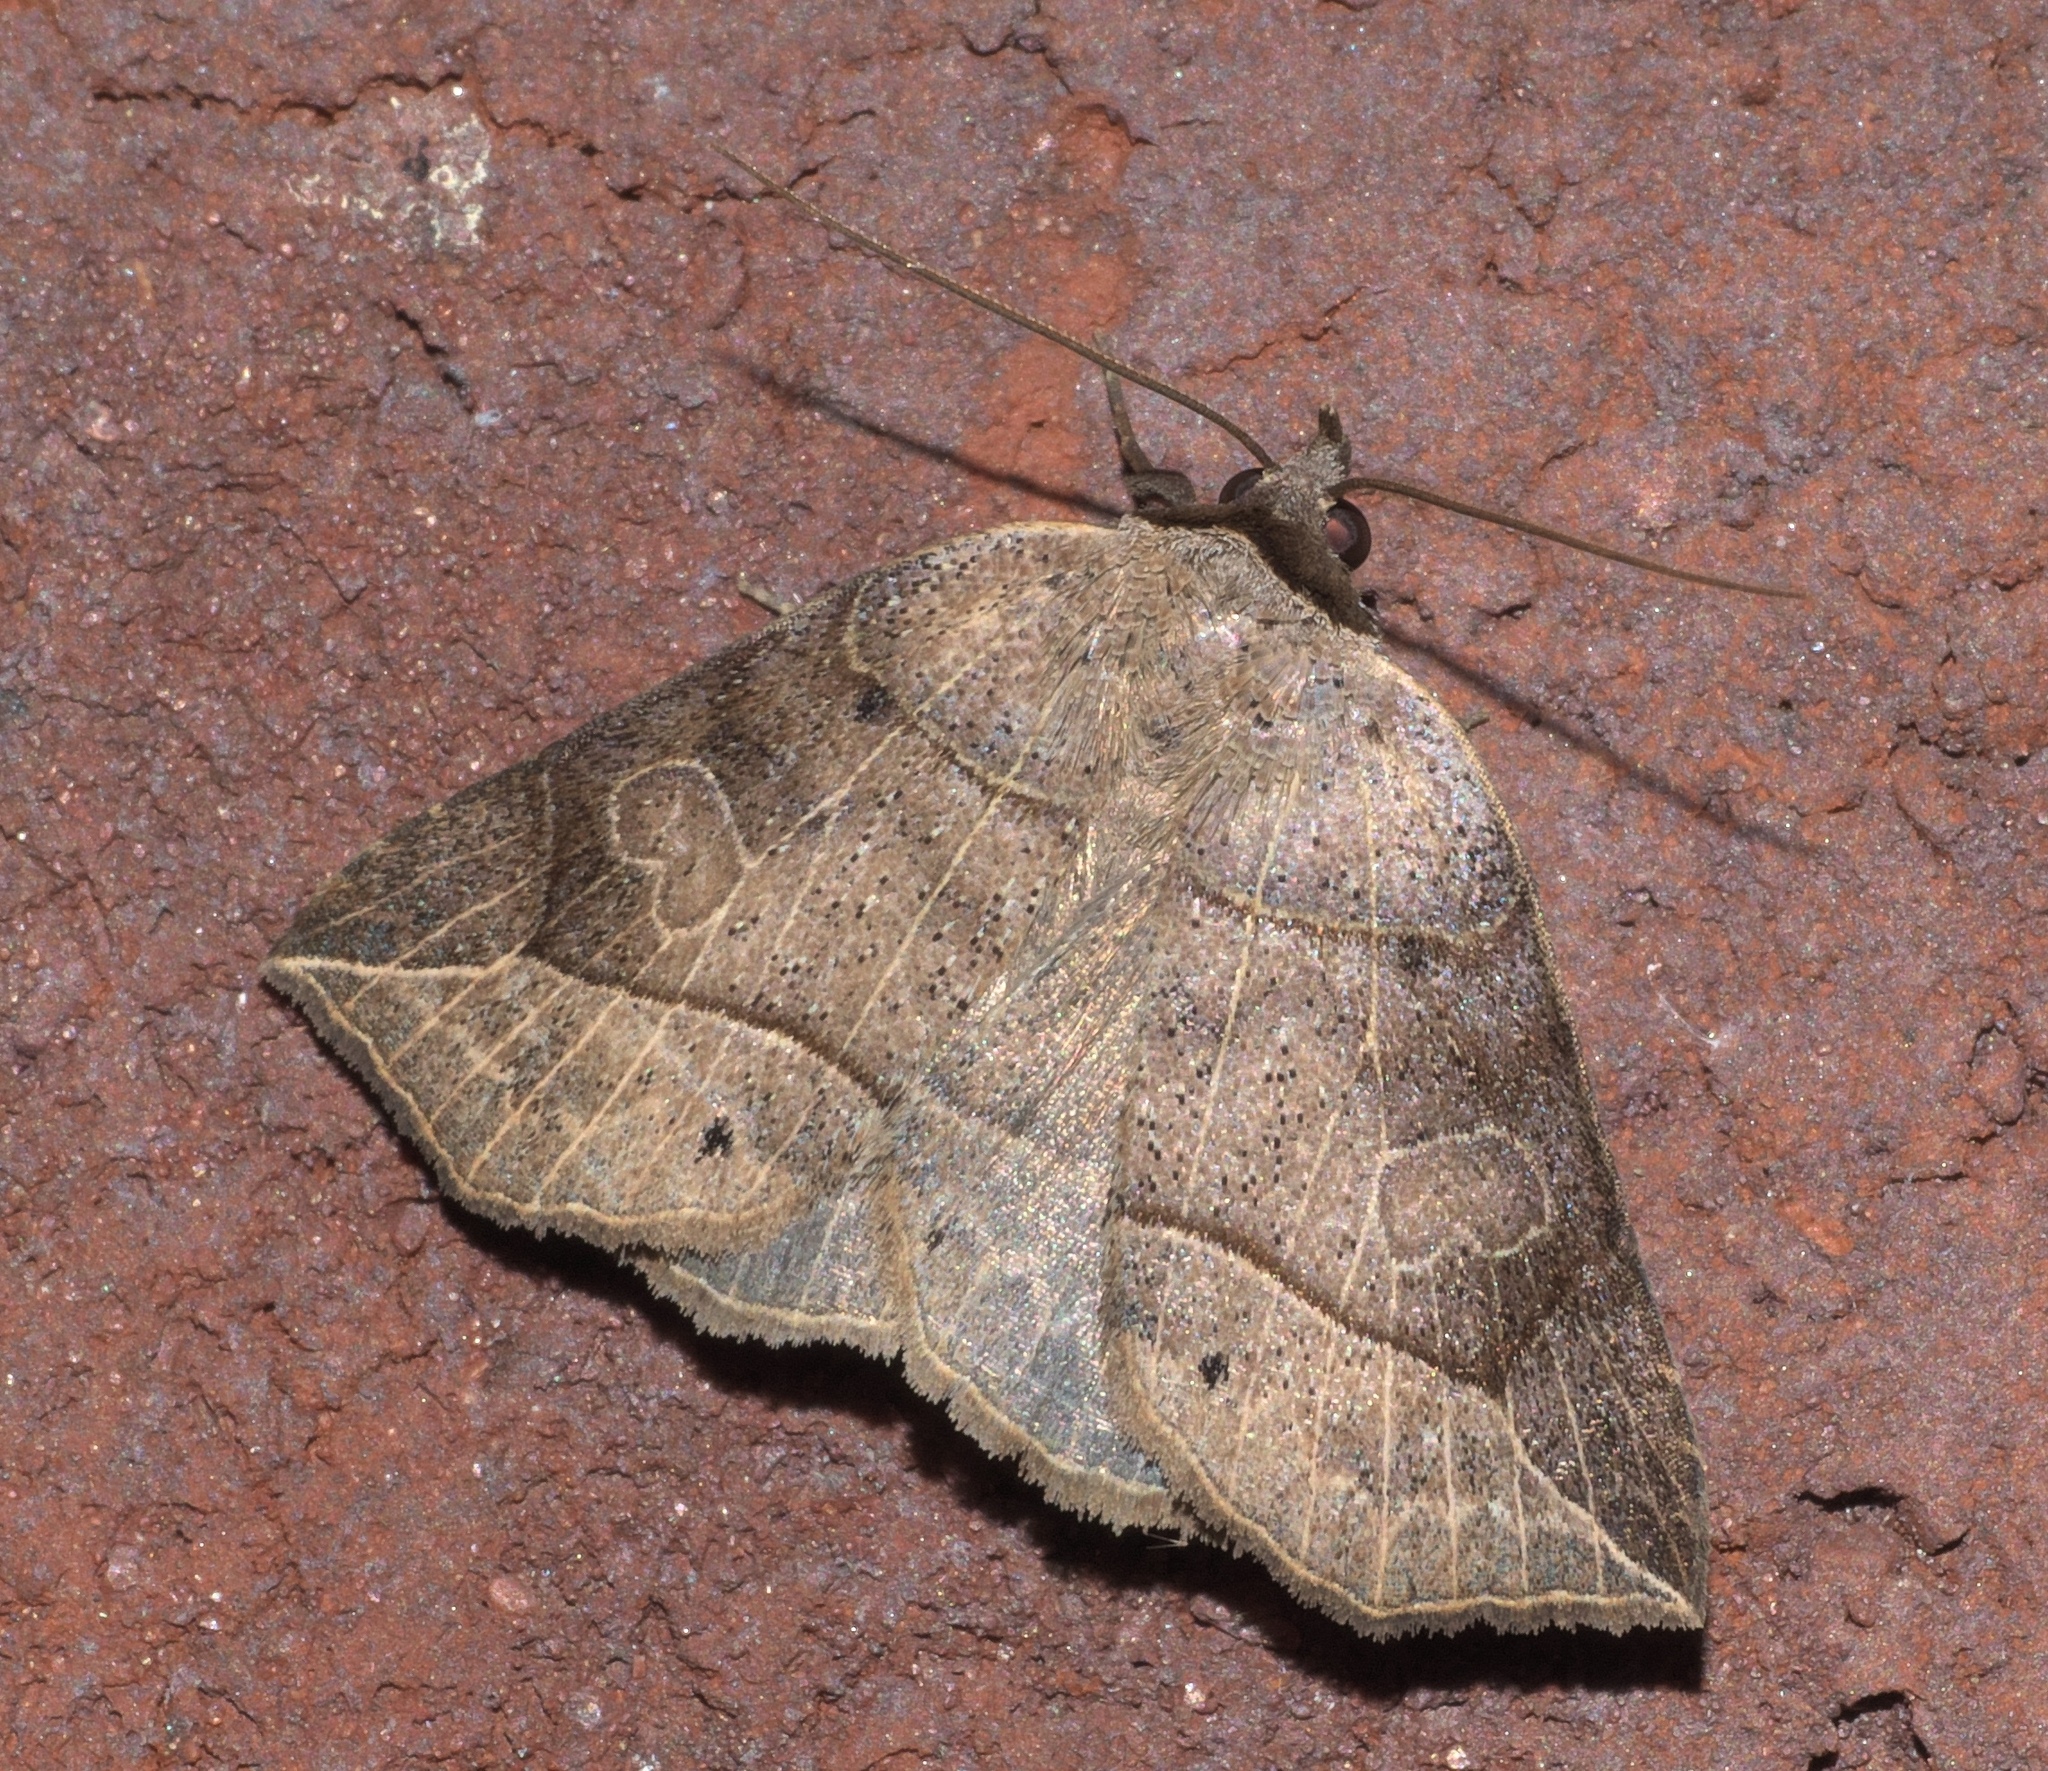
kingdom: Animalia
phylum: Arthropoda
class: Insecta
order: Lepidoptera
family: Erebidae
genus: Isogona
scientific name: Isogona tenuis
